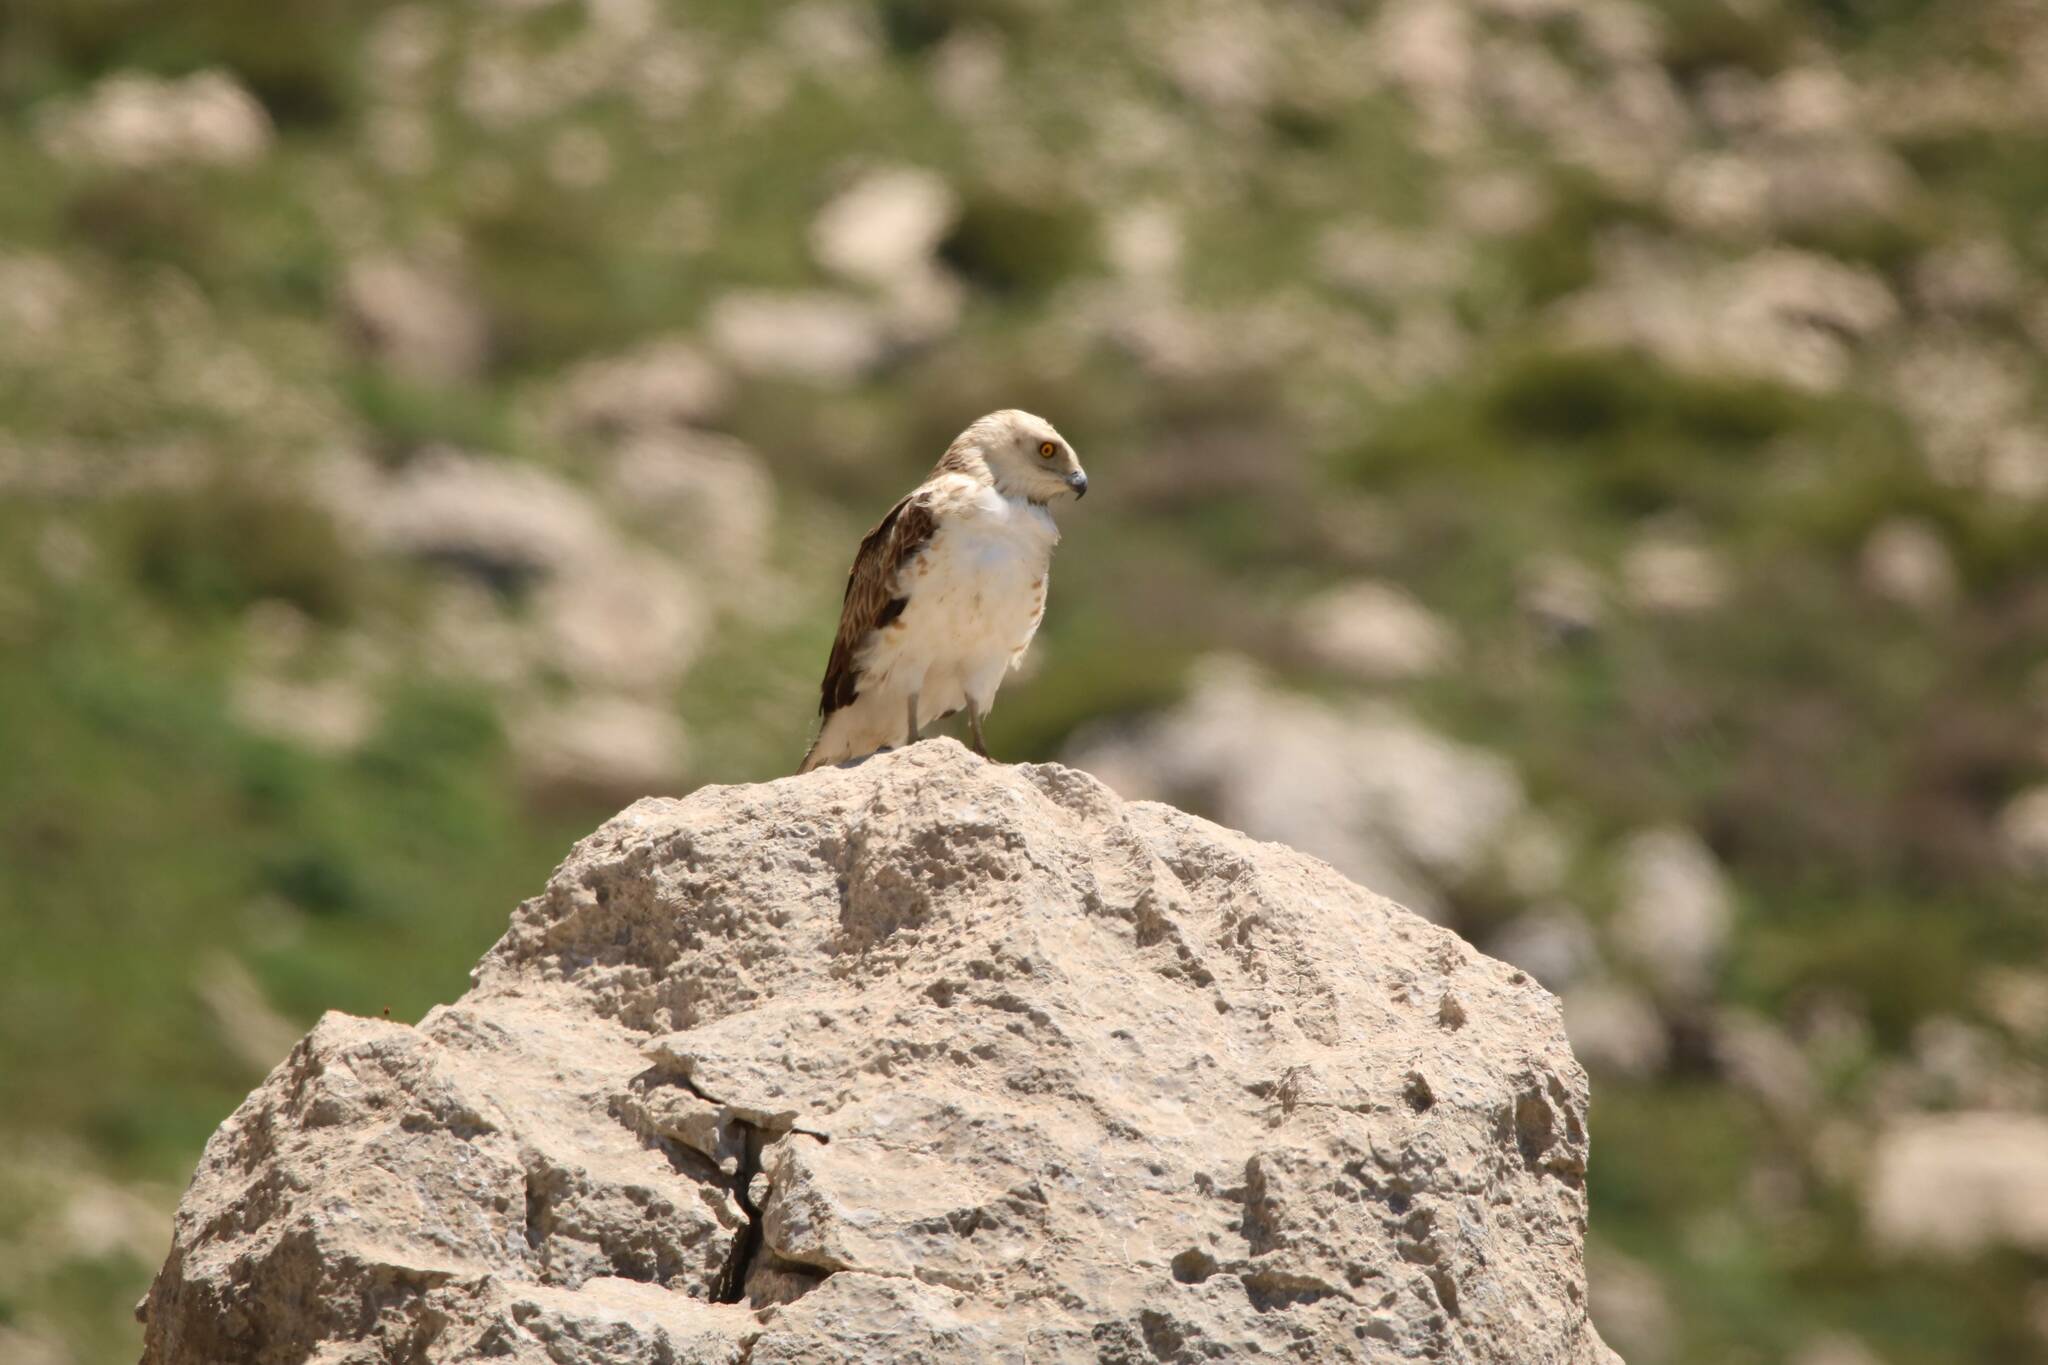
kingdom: Animalia
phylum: Chordata
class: Aves
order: Accipitriformes
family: Accipitridae
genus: Circaetus
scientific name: Circaetus gallicus
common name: Short-toed snake eagle
